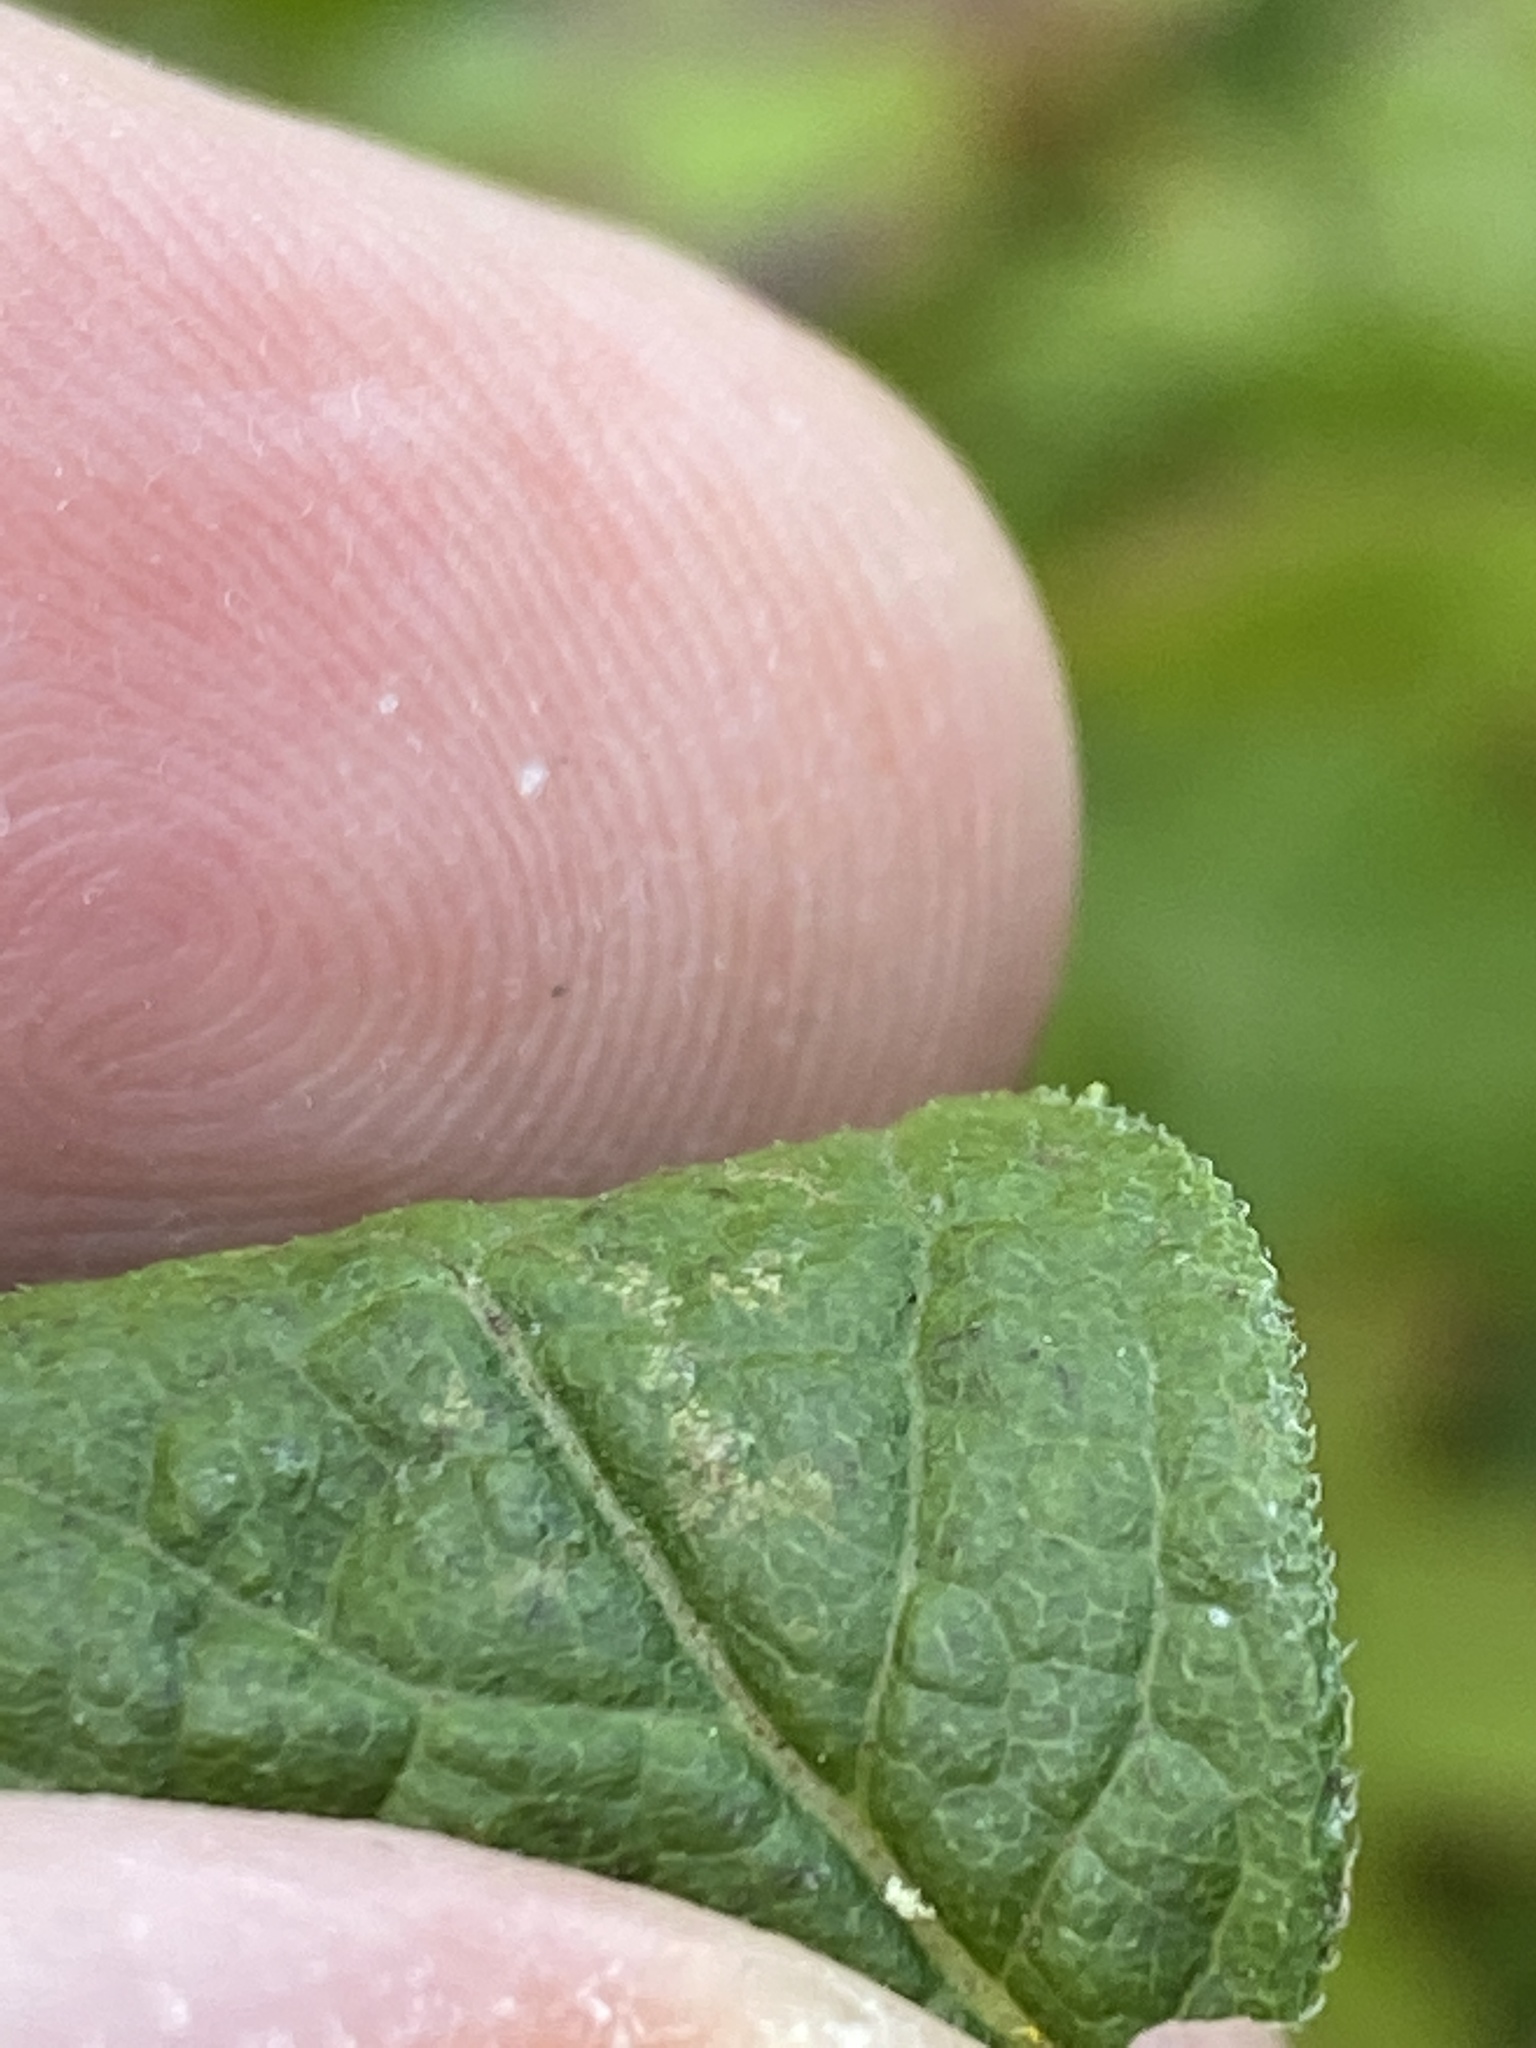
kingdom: Plantae
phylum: Tracheophyta
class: Magnoliopsida
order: Asterales
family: Asteraceae
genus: Solidago
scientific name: Solidago rugosa
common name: Rough-stemmed goldenrod
